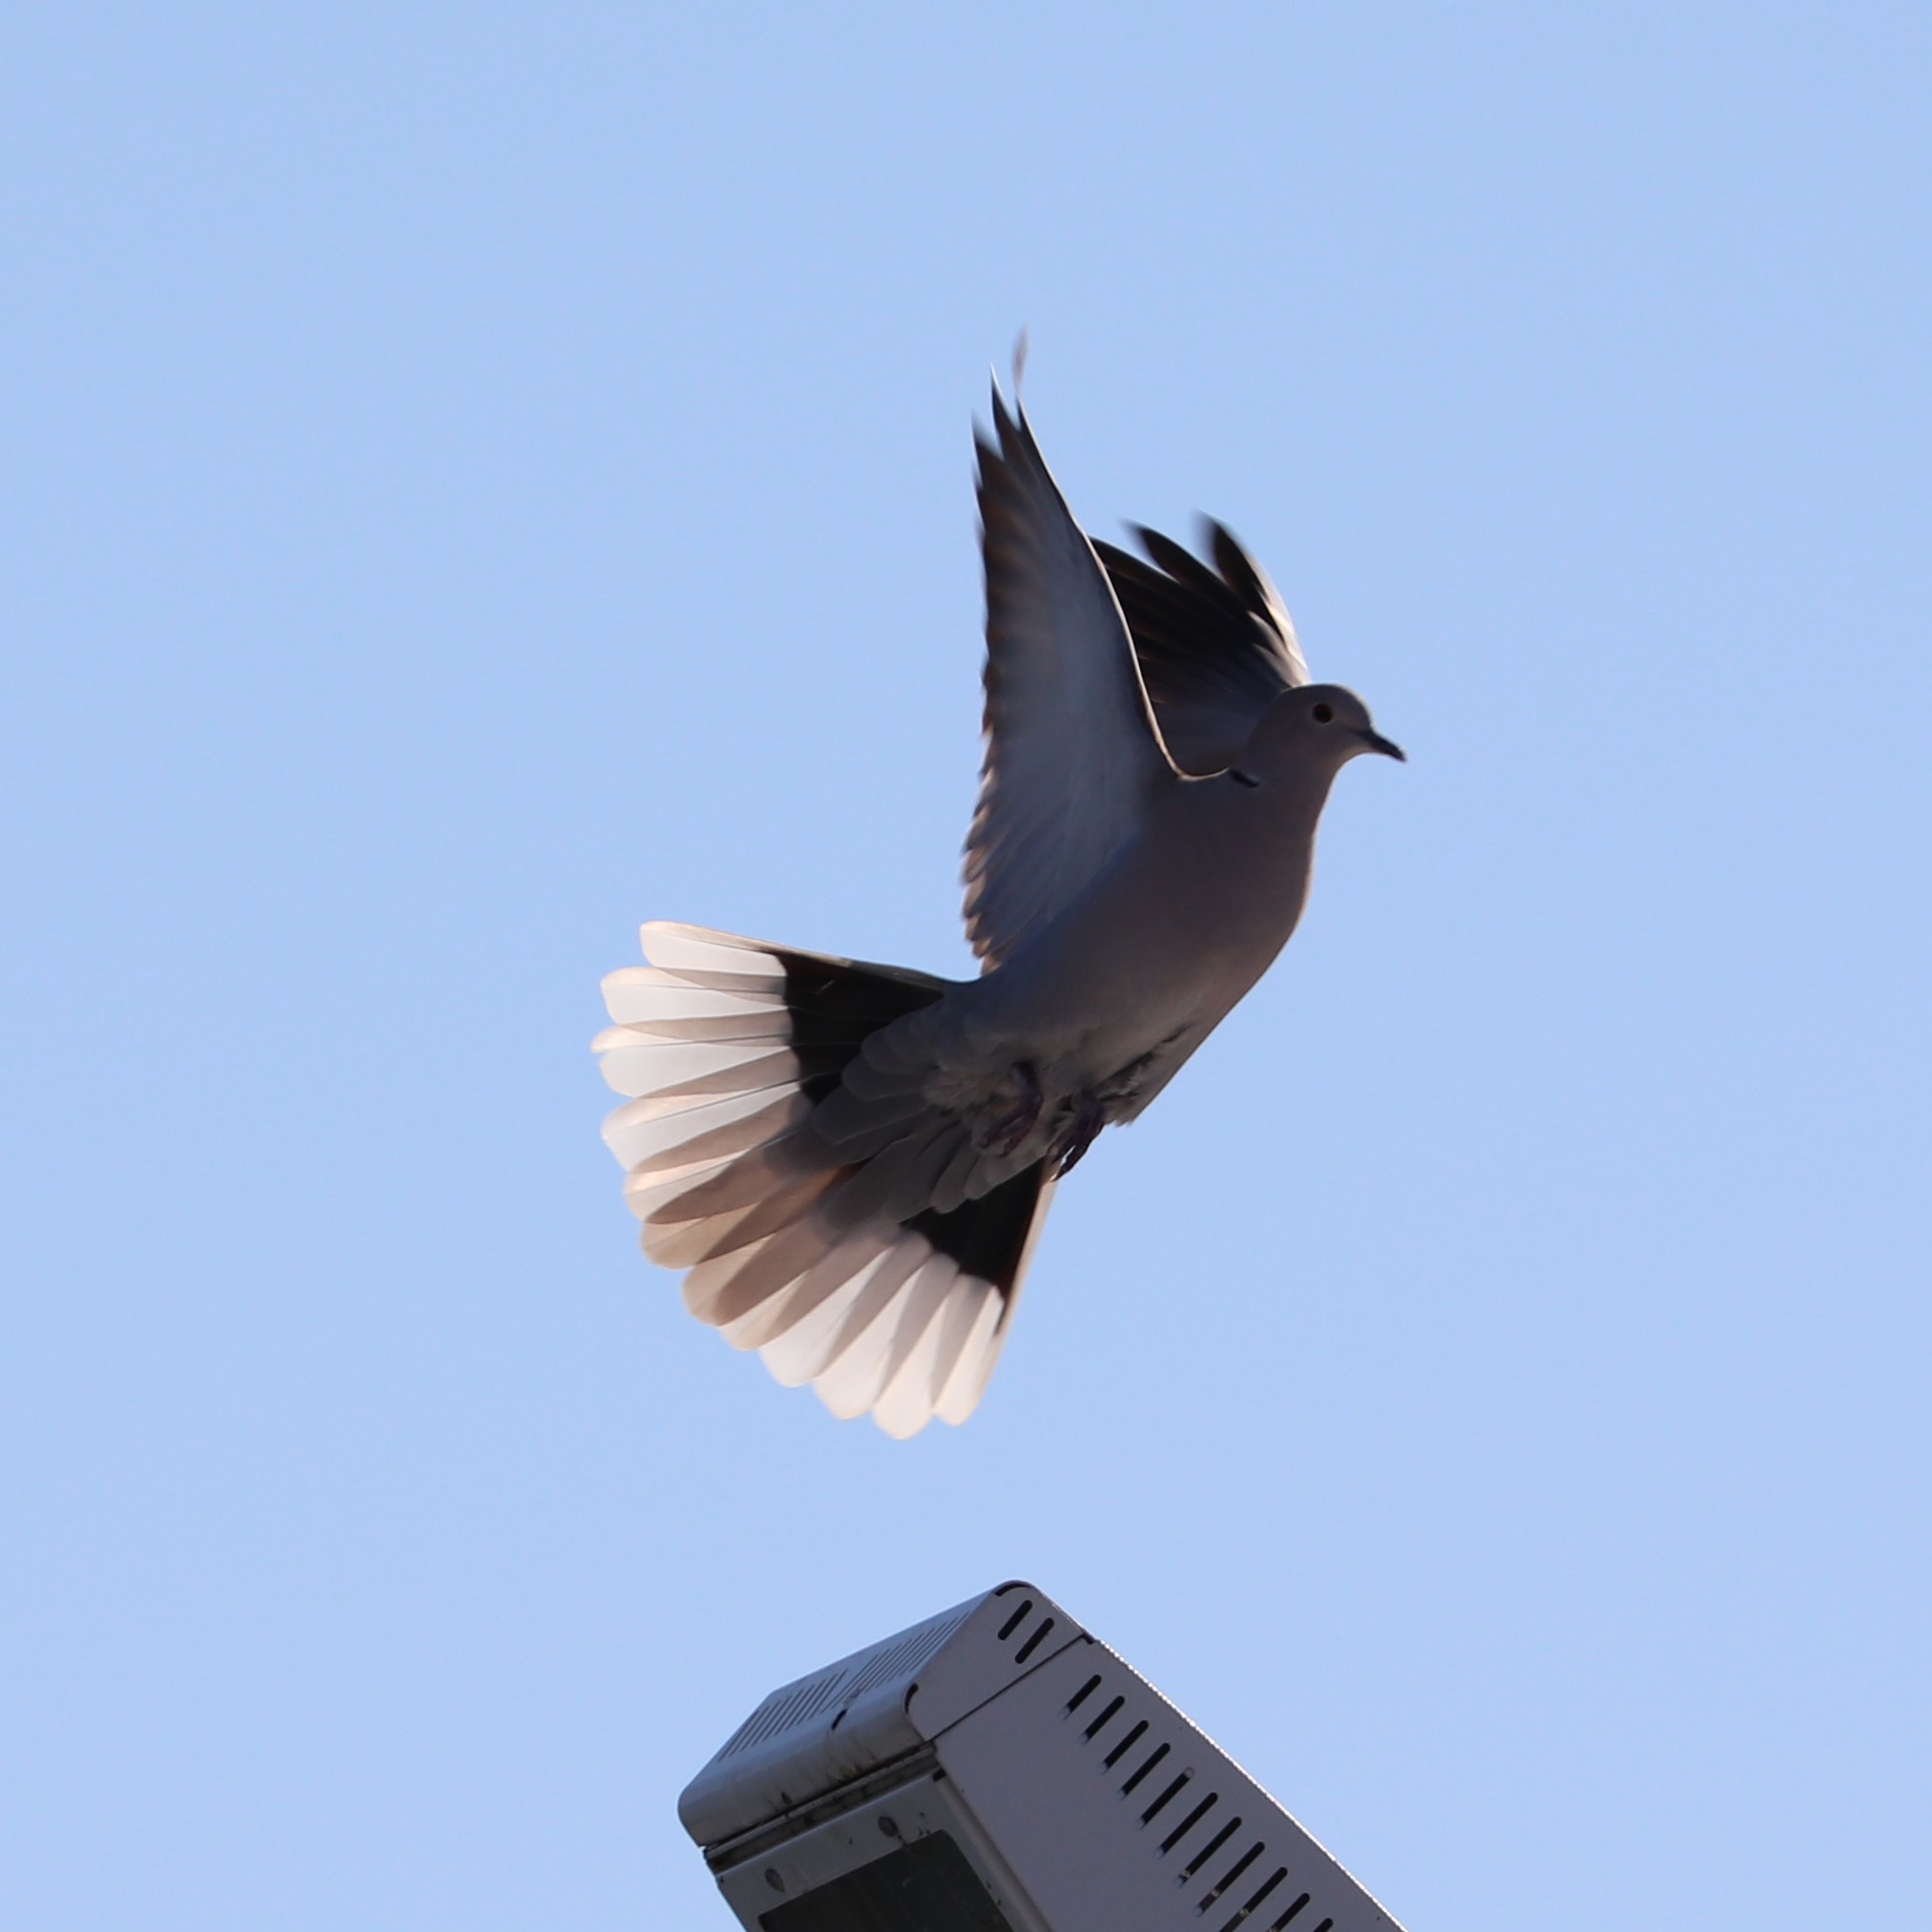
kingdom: Animalia
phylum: Chordata
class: Aves
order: Columbiformes
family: Columbidae
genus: Streptopelia
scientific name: Streptopelia decaocto
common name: Eurasian collared dove
